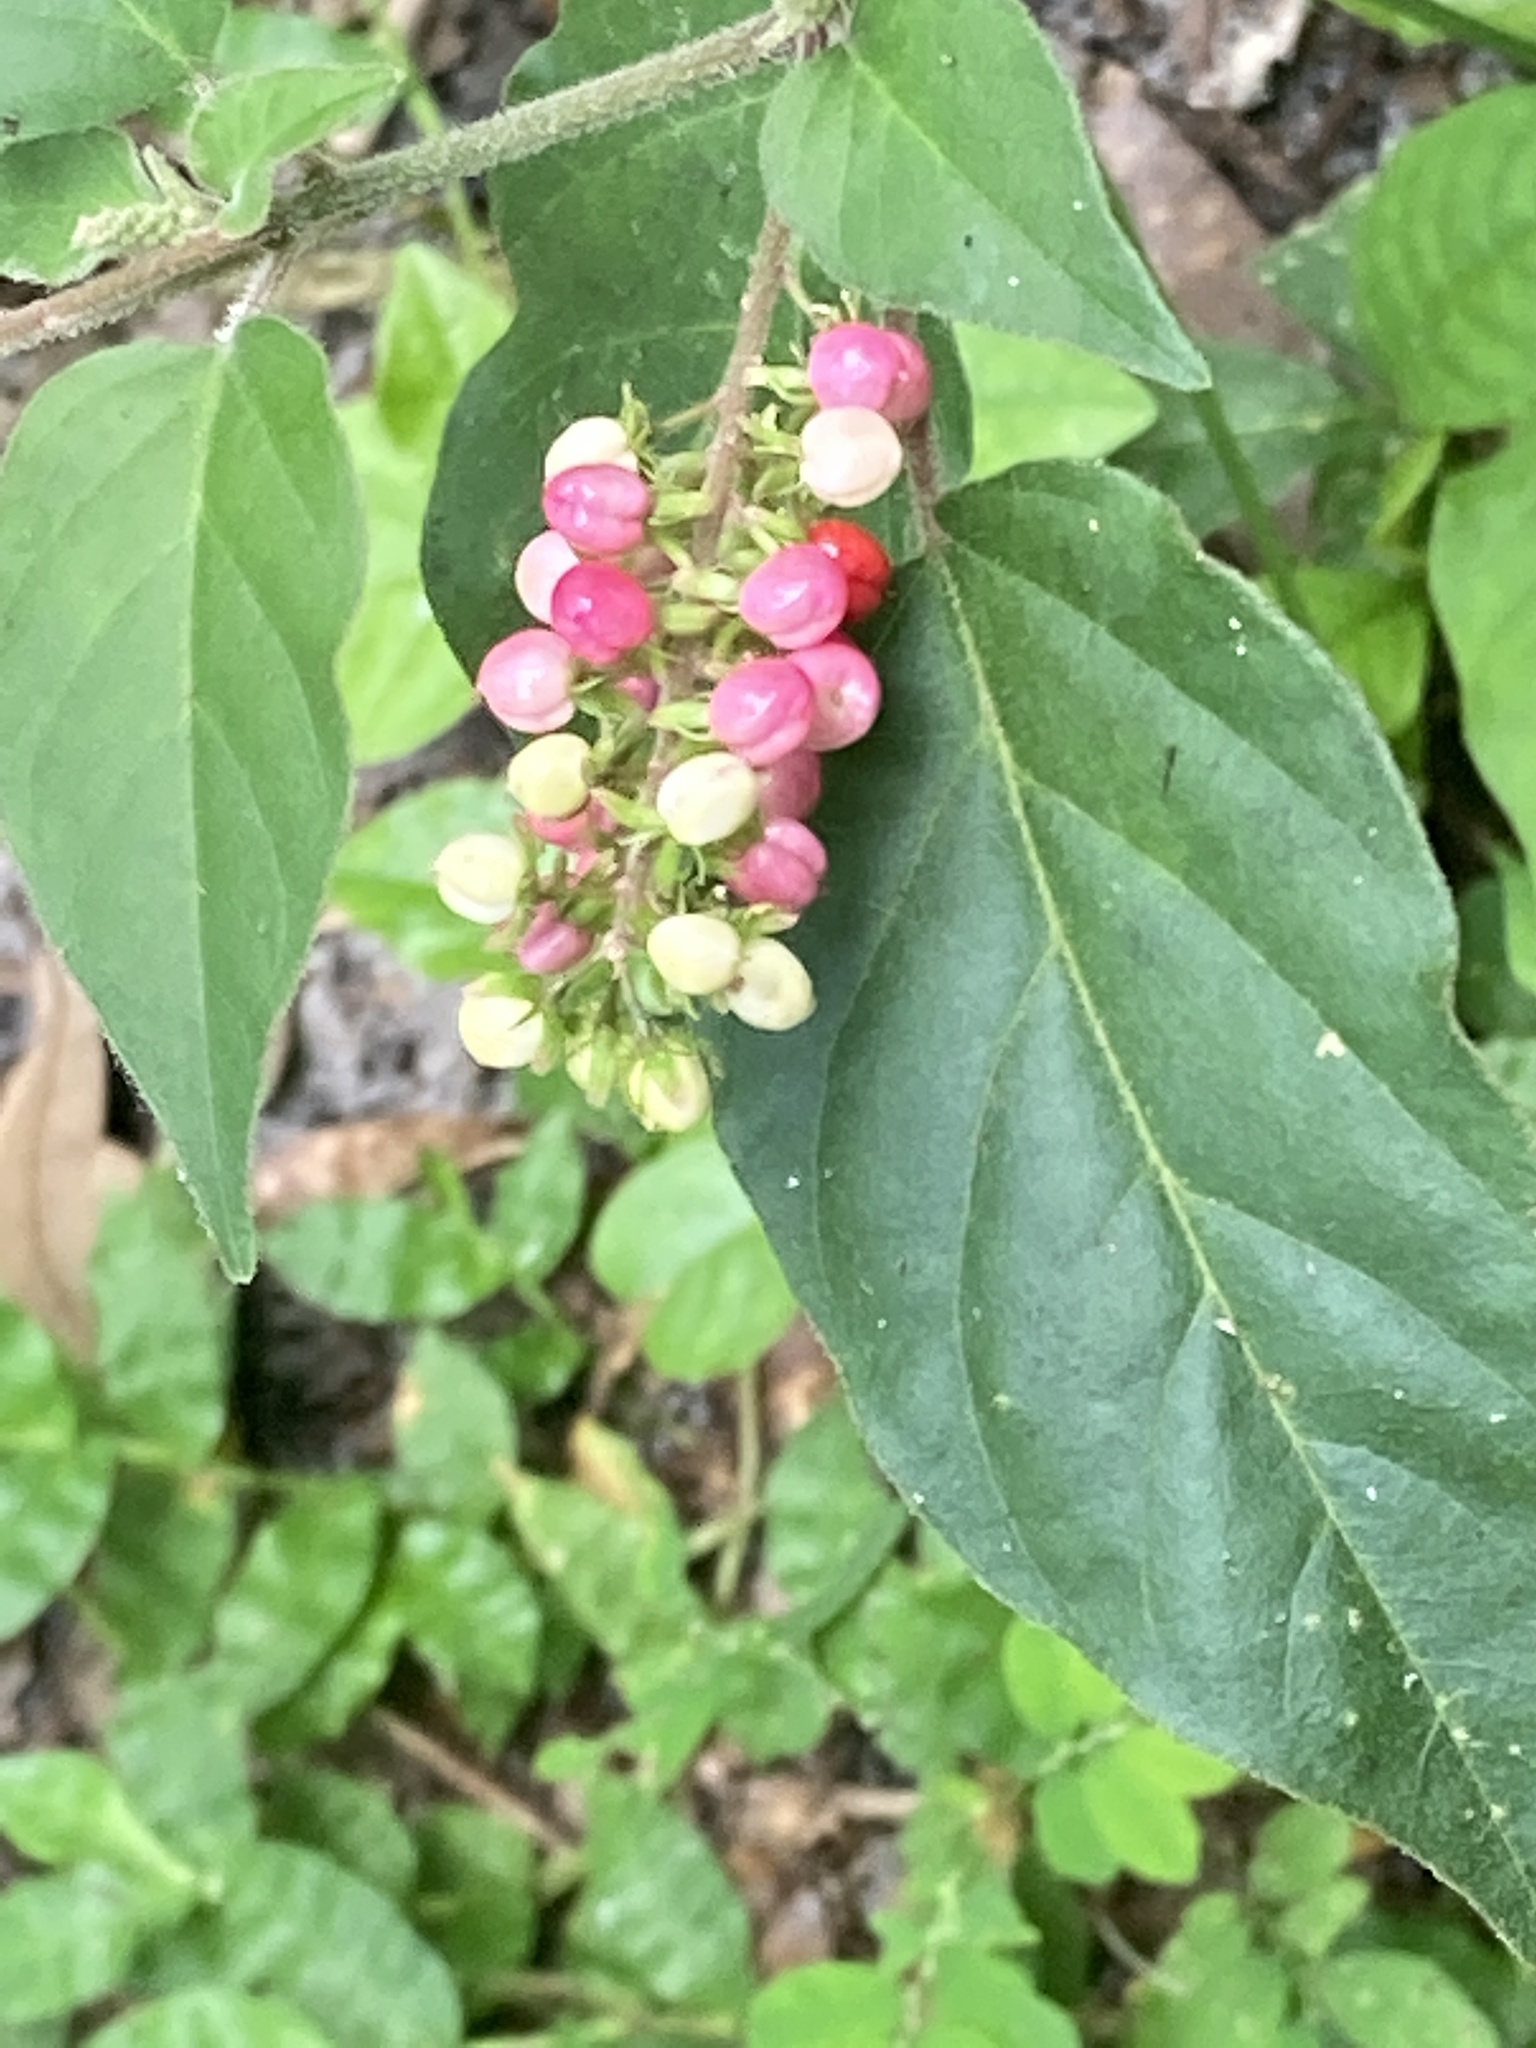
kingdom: Plantae
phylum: Tracheophyta
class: Magnoliopsida
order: Caryophyllales
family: Phytolaccaceae
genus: Rivina
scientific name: Rivina humilis
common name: Rougeplant
